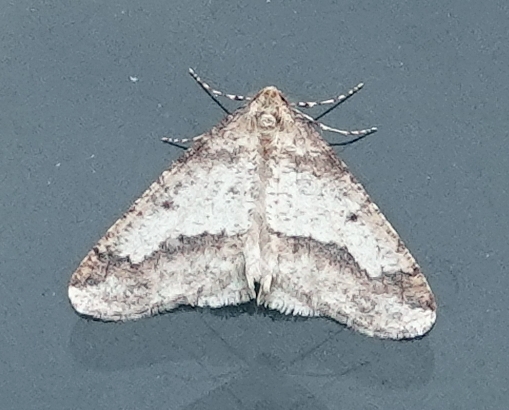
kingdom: Animalia
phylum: Arthropoda
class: Insecta
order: Lepidoptera
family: Geometridae
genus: Erannis
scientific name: Erannis tiliaria
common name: Linden looper
